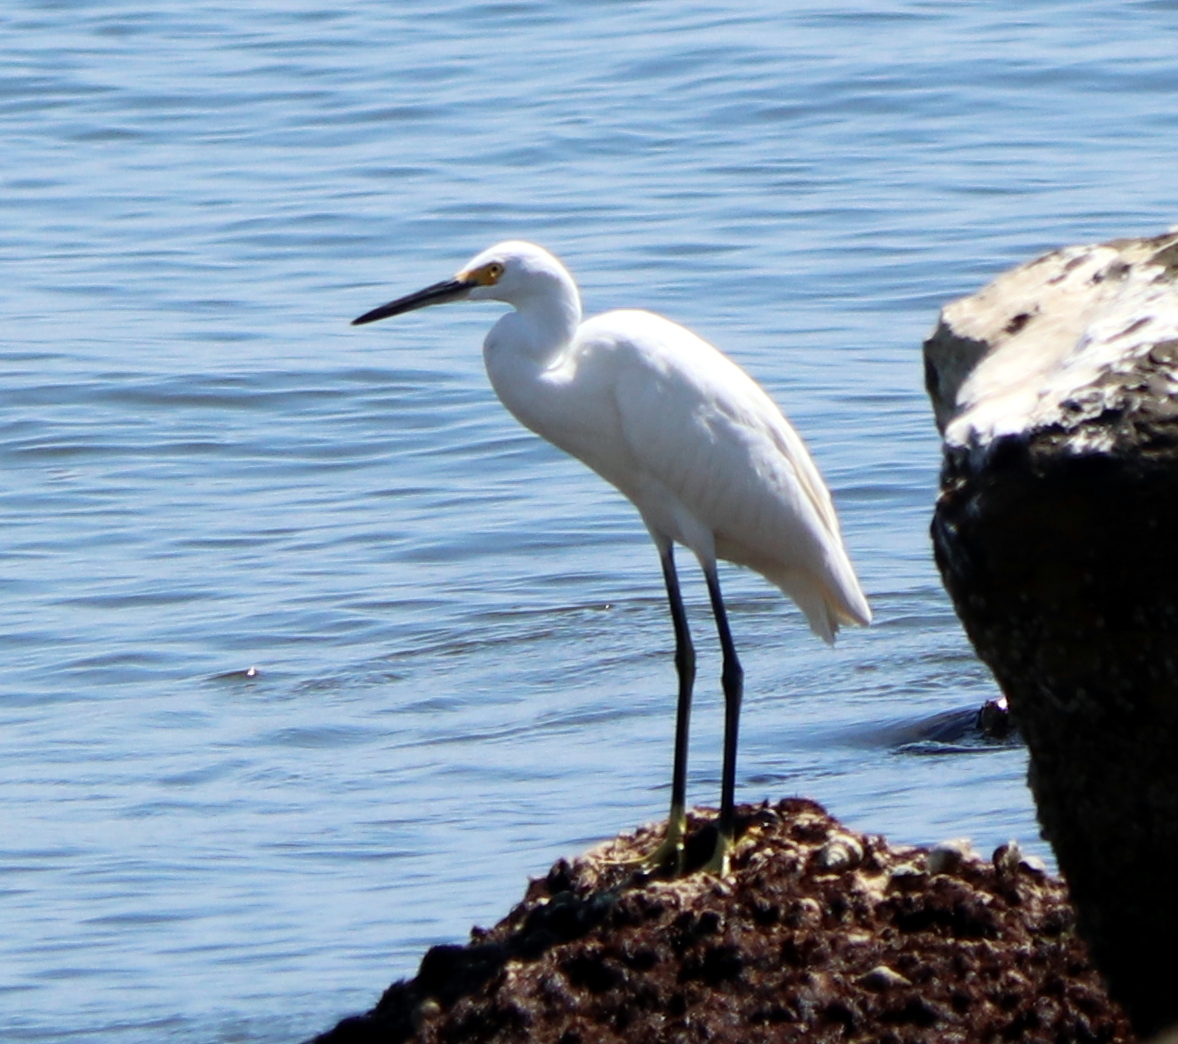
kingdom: Animalia
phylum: Chordata
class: Aves
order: Pelecaniformes
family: Ardeidae
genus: Egretta
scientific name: Egretta thula
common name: Snowy egret
